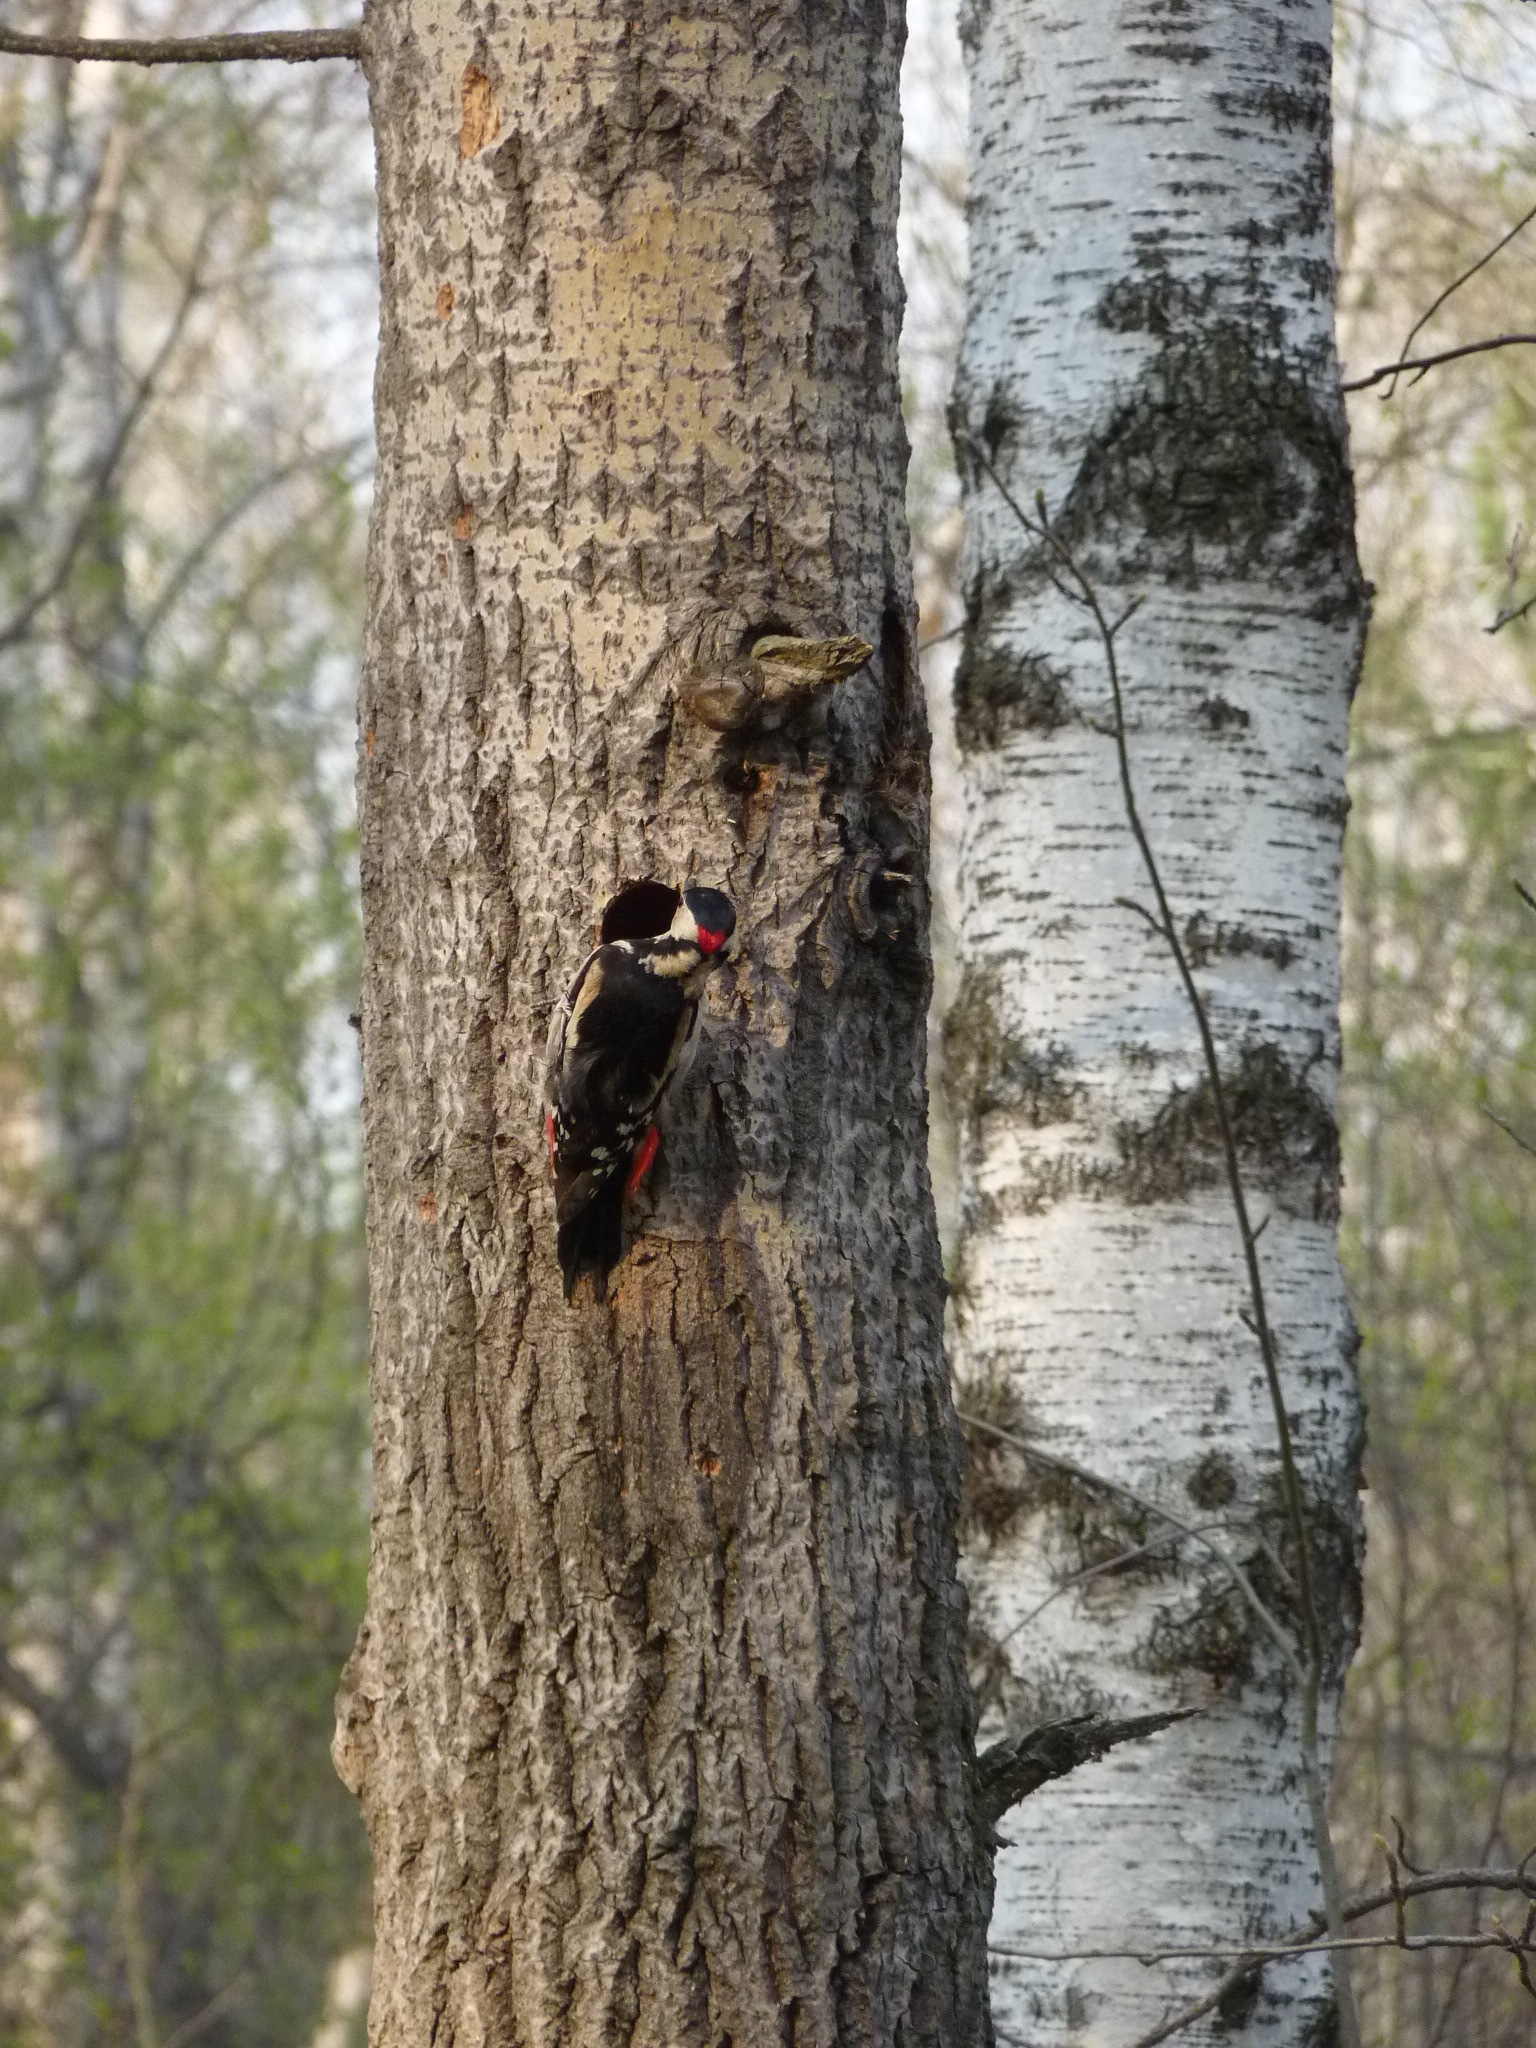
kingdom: Animalia
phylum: Chordata
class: Aves
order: Piciformes
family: Picidae
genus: Dendrocopos
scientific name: Dendrocopos major
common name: Great spotted woodpecker
